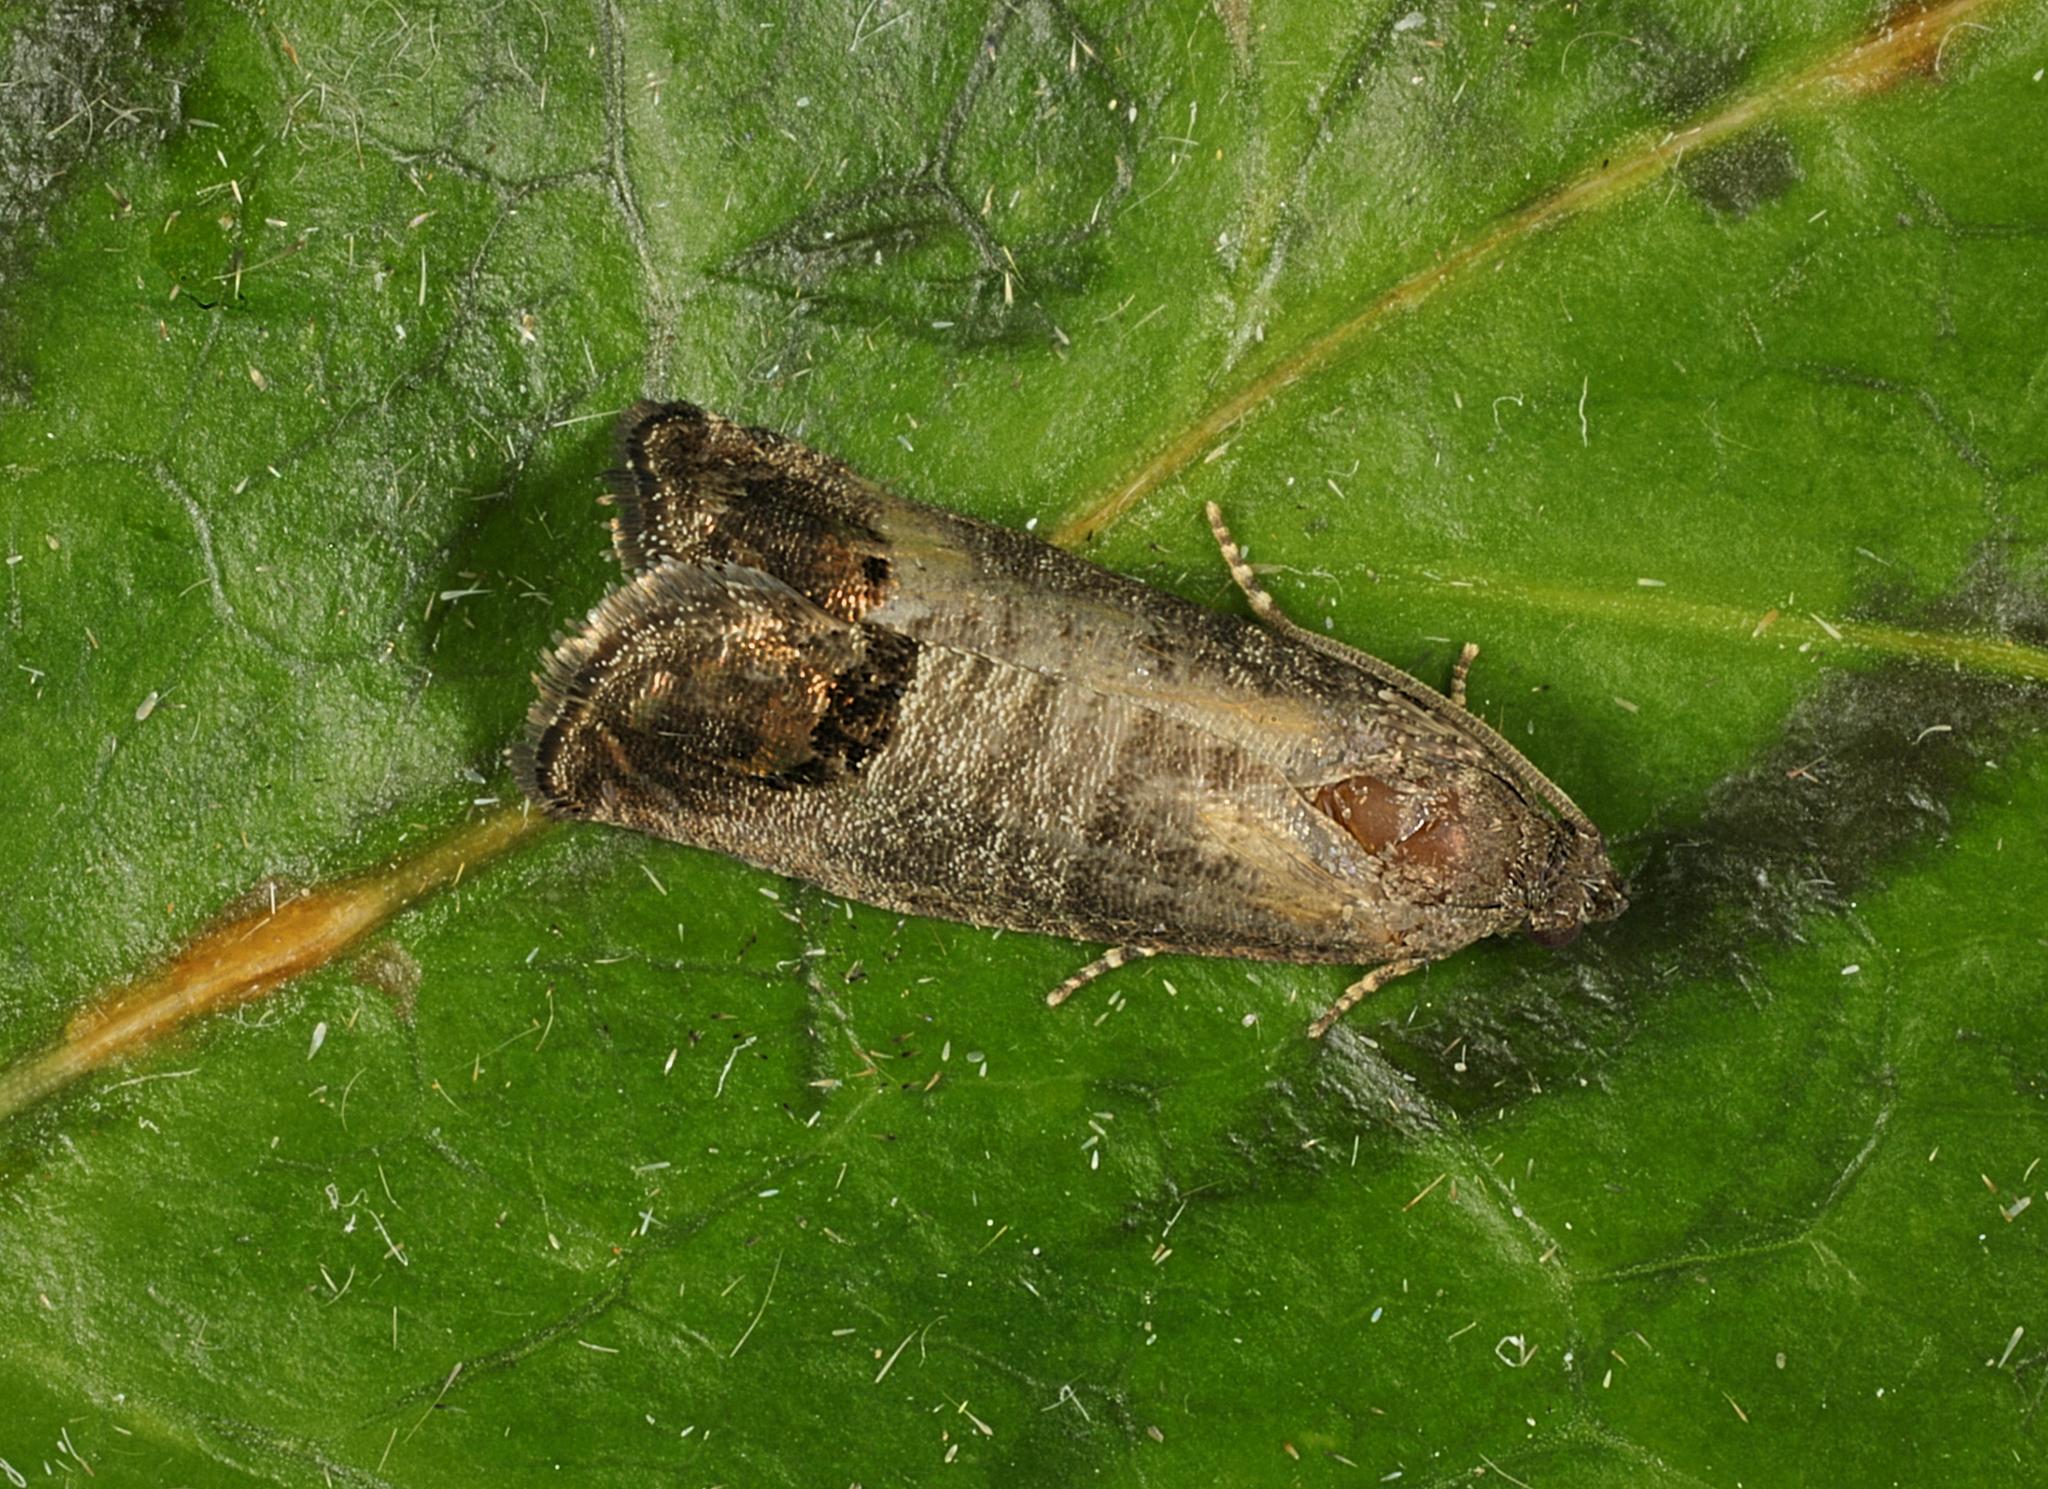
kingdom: Animalia
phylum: Arthropoda
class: Insecta
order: Lepidoptera
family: Tortricidae
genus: Cydia
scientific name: Cydia pomonella
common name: Codling moth
